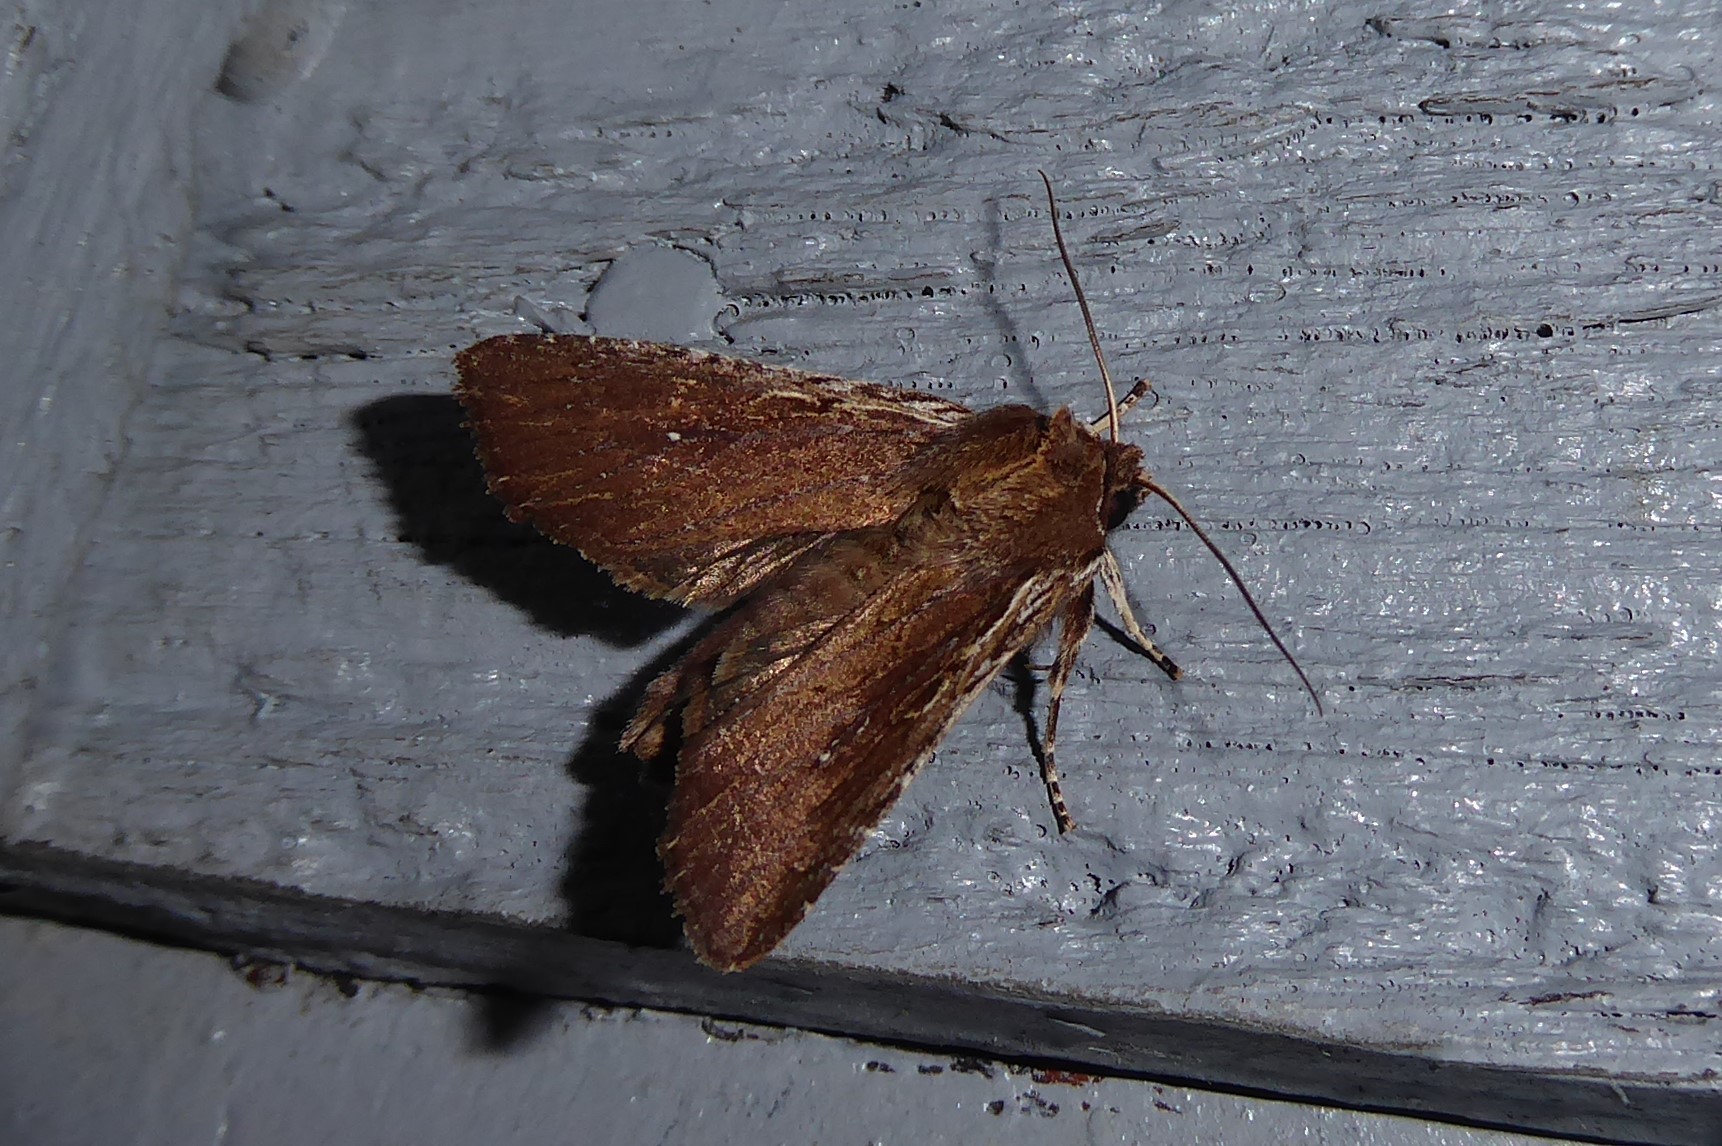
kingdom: Animalia
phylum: Arthropoda
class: Insecta
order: Lepidoptera
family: Noctuidae
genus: Ichneutica
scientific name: Ichneutica
